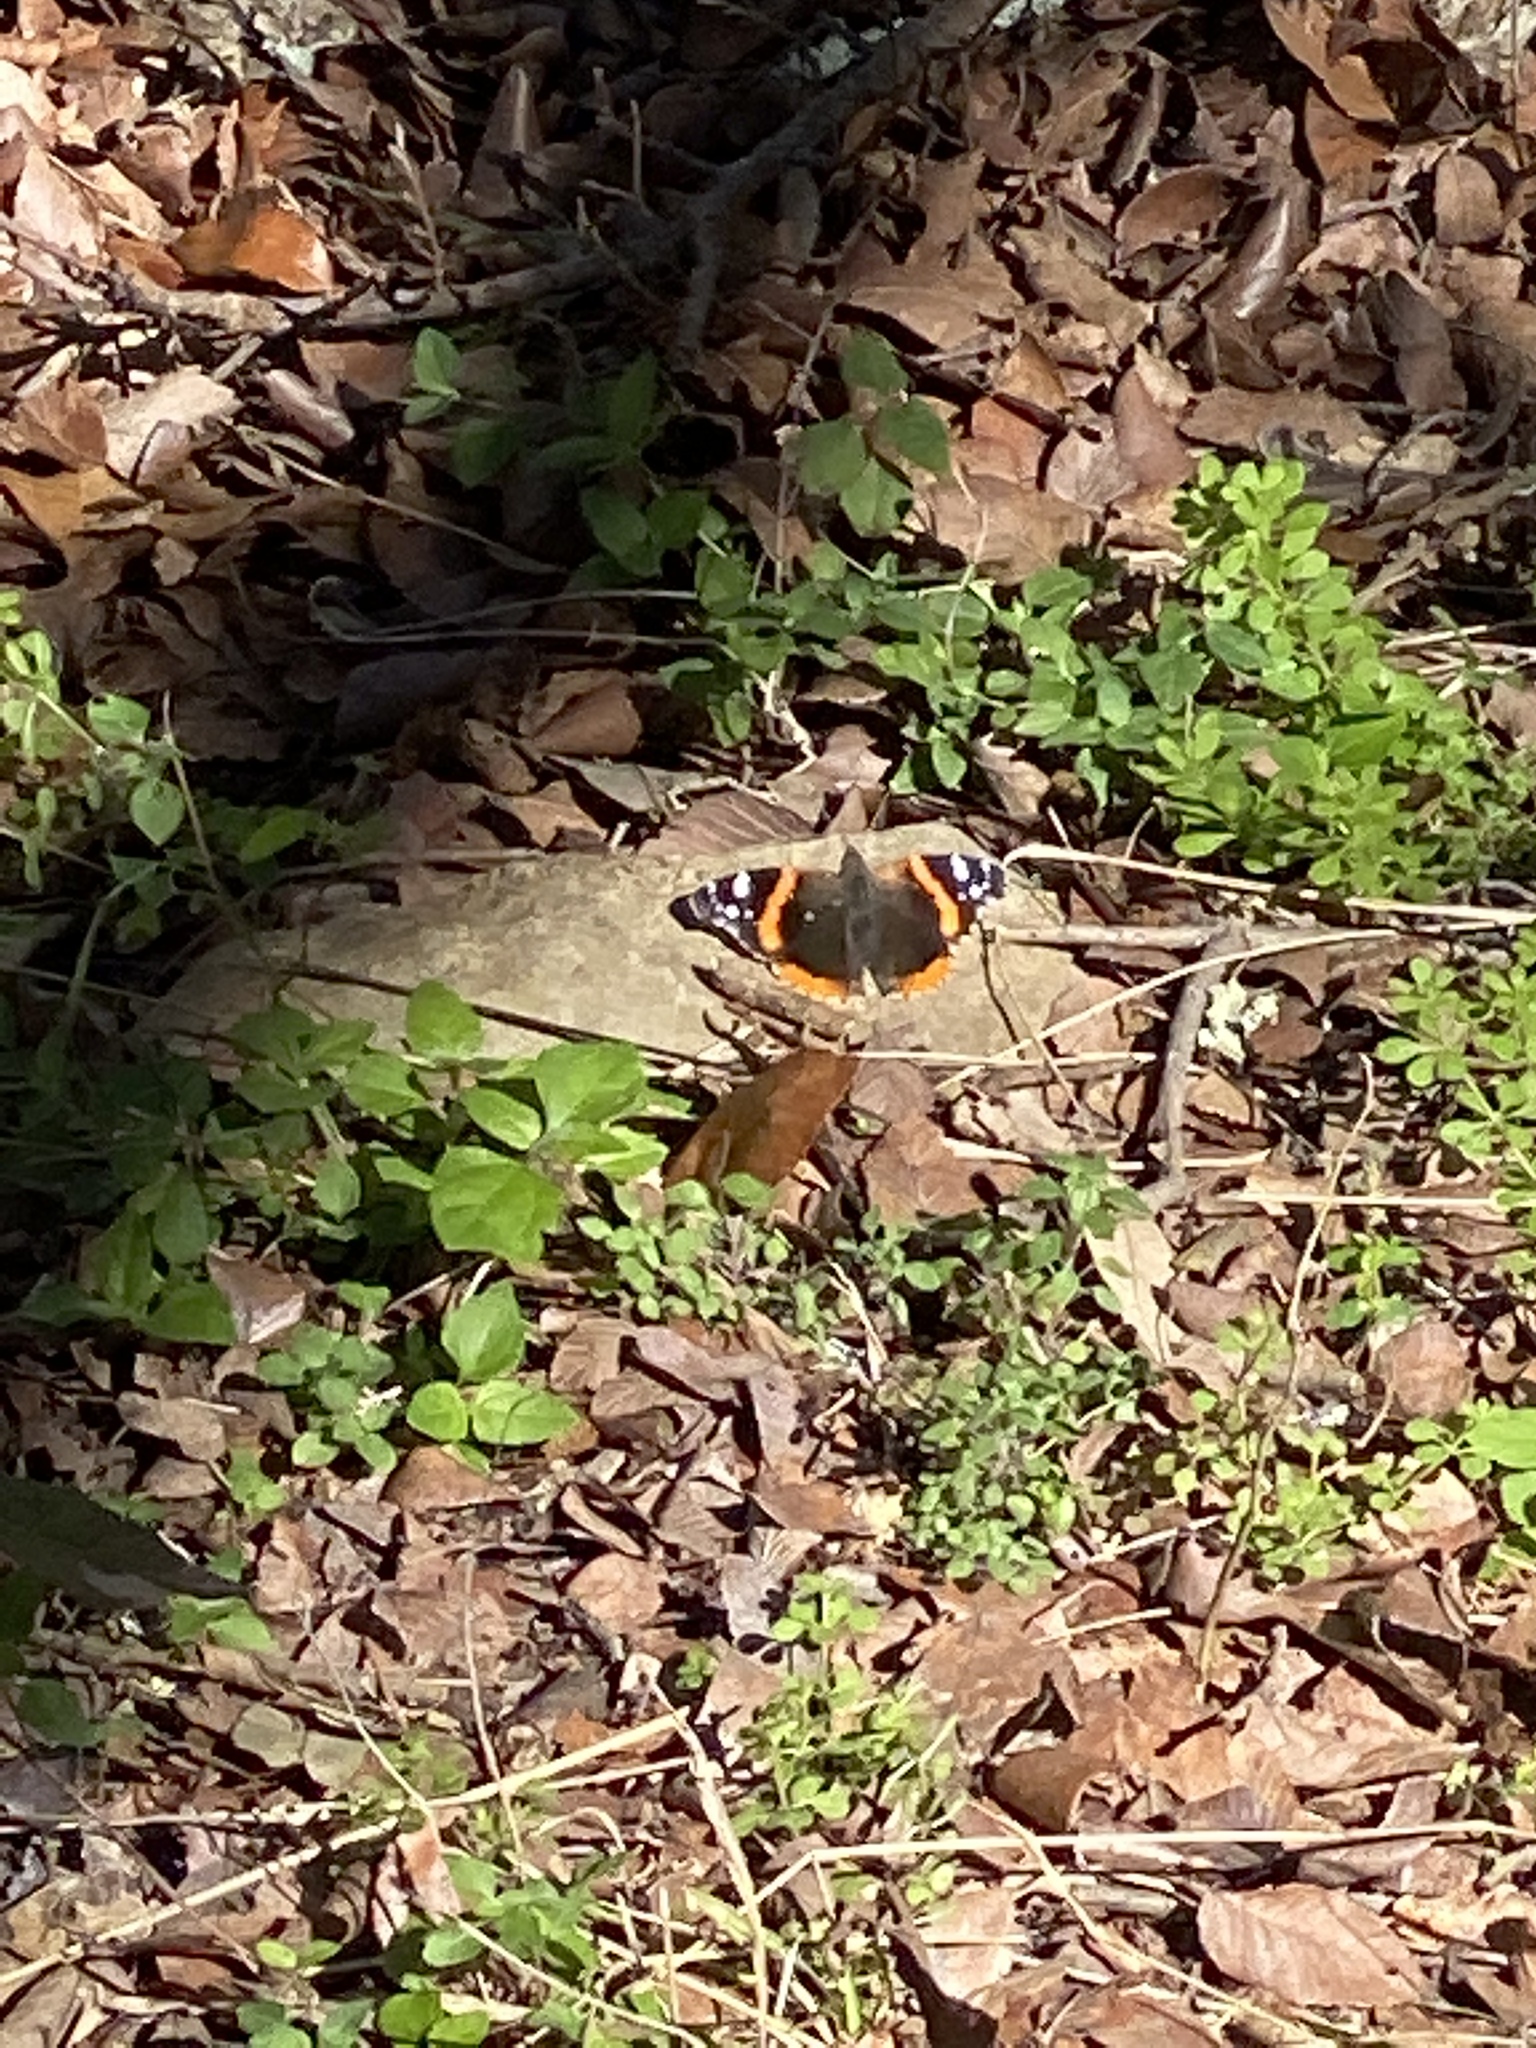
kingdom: Animalia
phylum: Arthropoda
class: Insecta
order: Lepidoptera
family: Nymphalidae
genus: Vanessa
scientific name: Vanessa atalanta
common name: Red admiral
